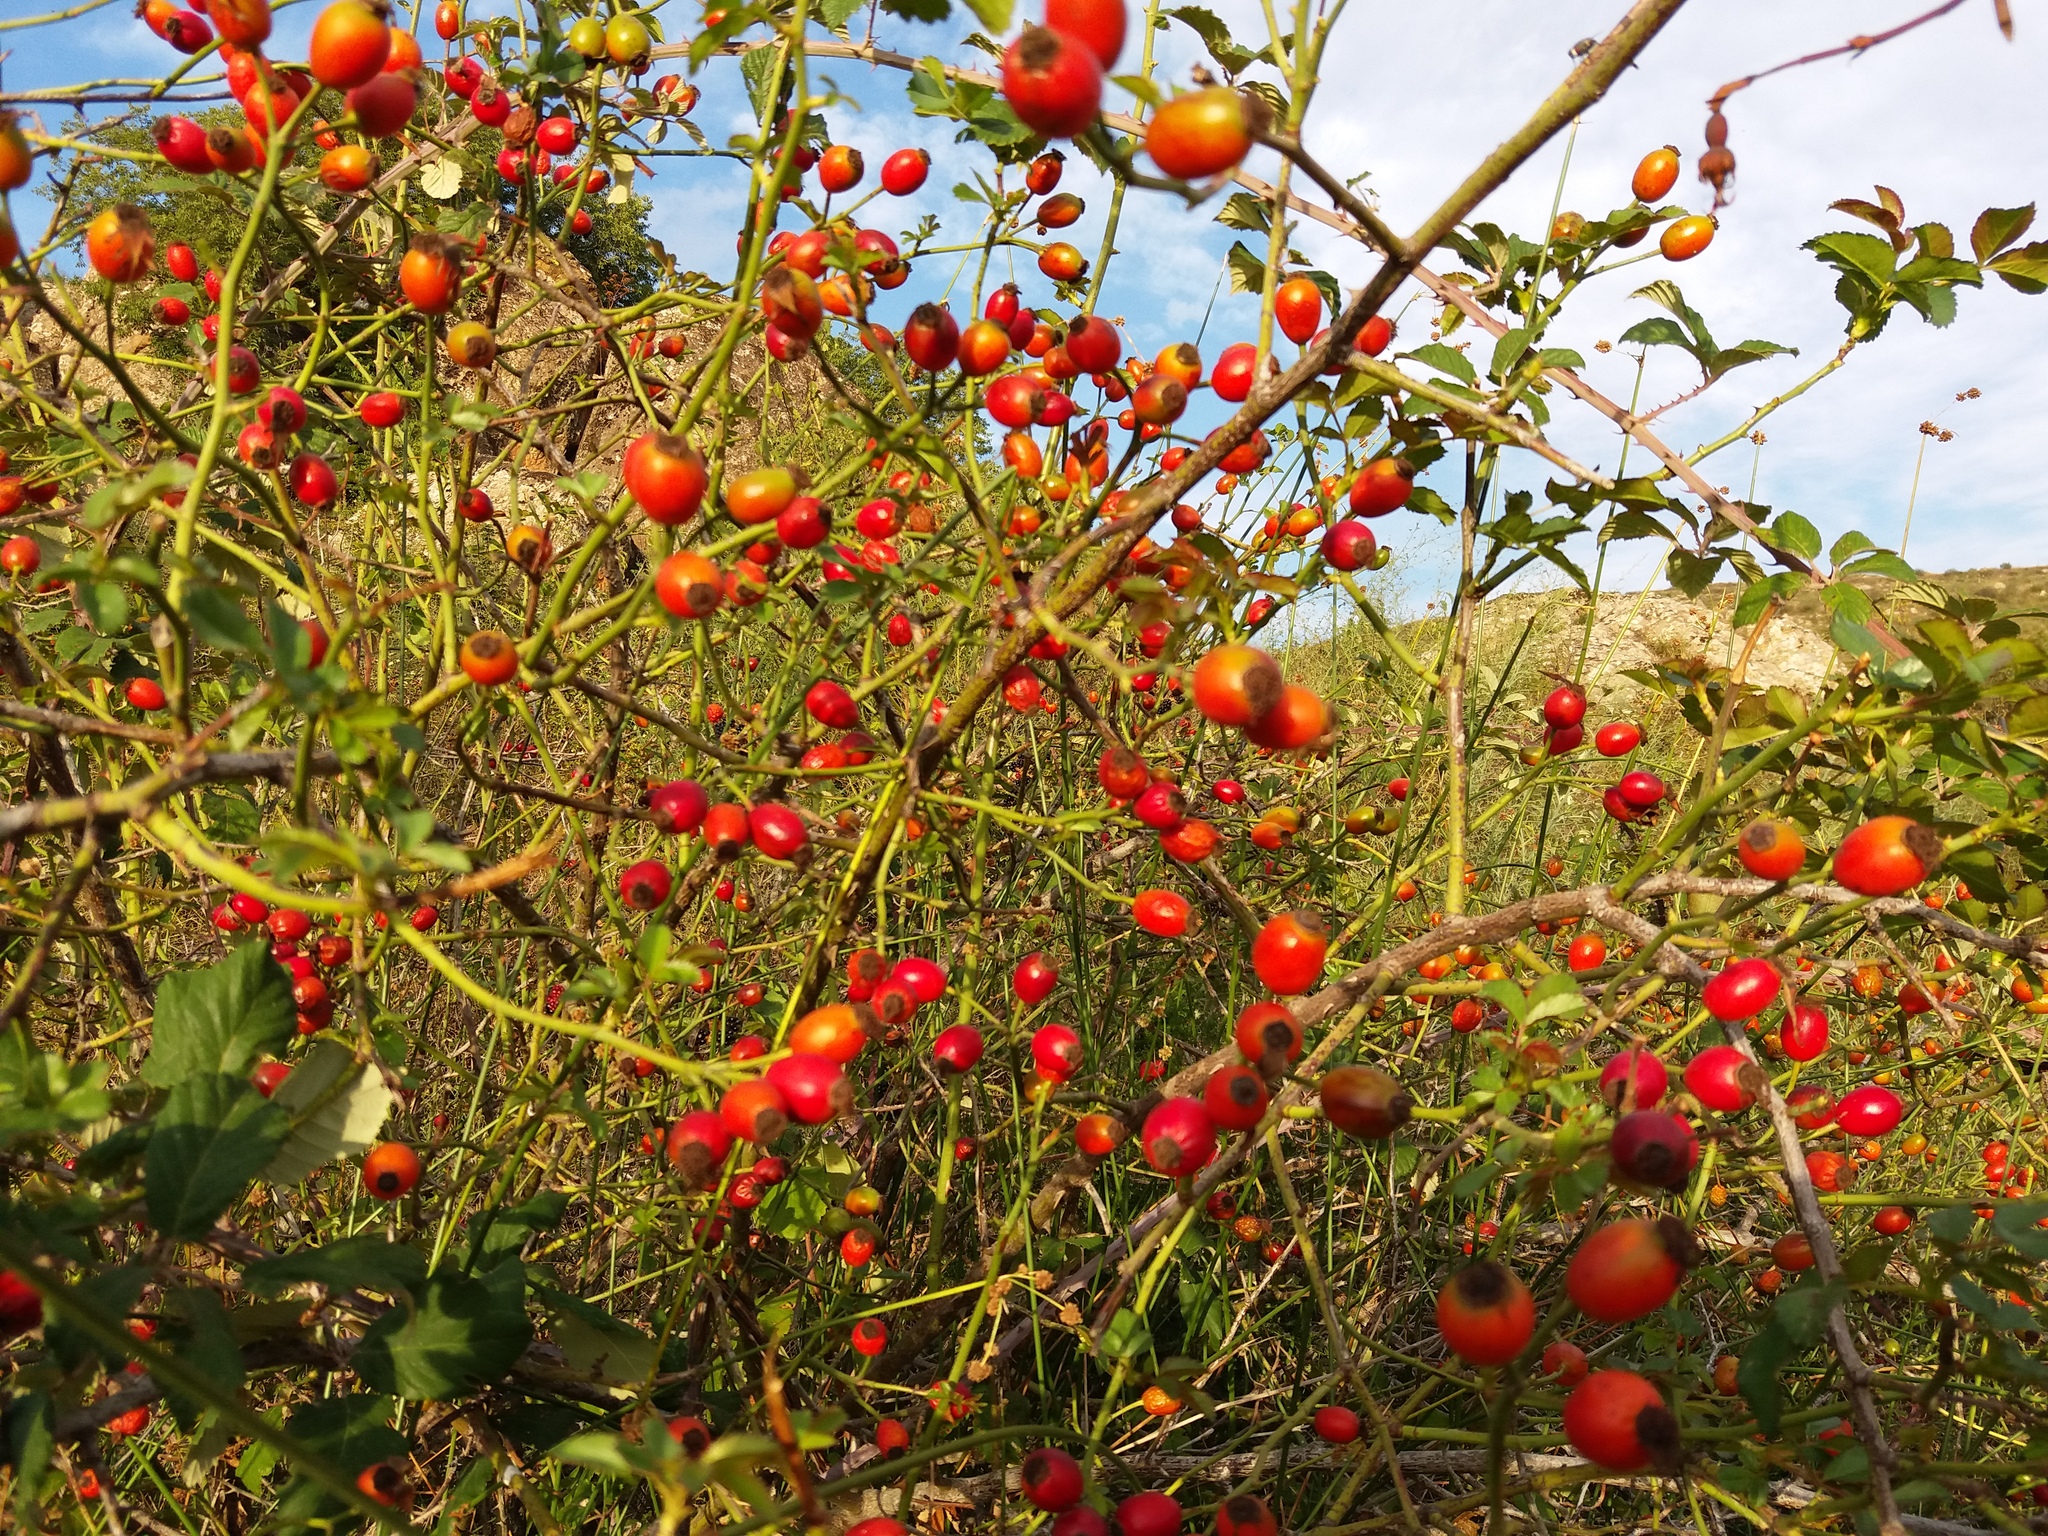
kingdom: Plantae
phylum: Tracheophyta
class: Magnoliopsida
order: Rosales
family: Rosaceae
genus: Rosa
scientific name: Rosa canina
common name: Dog rose
